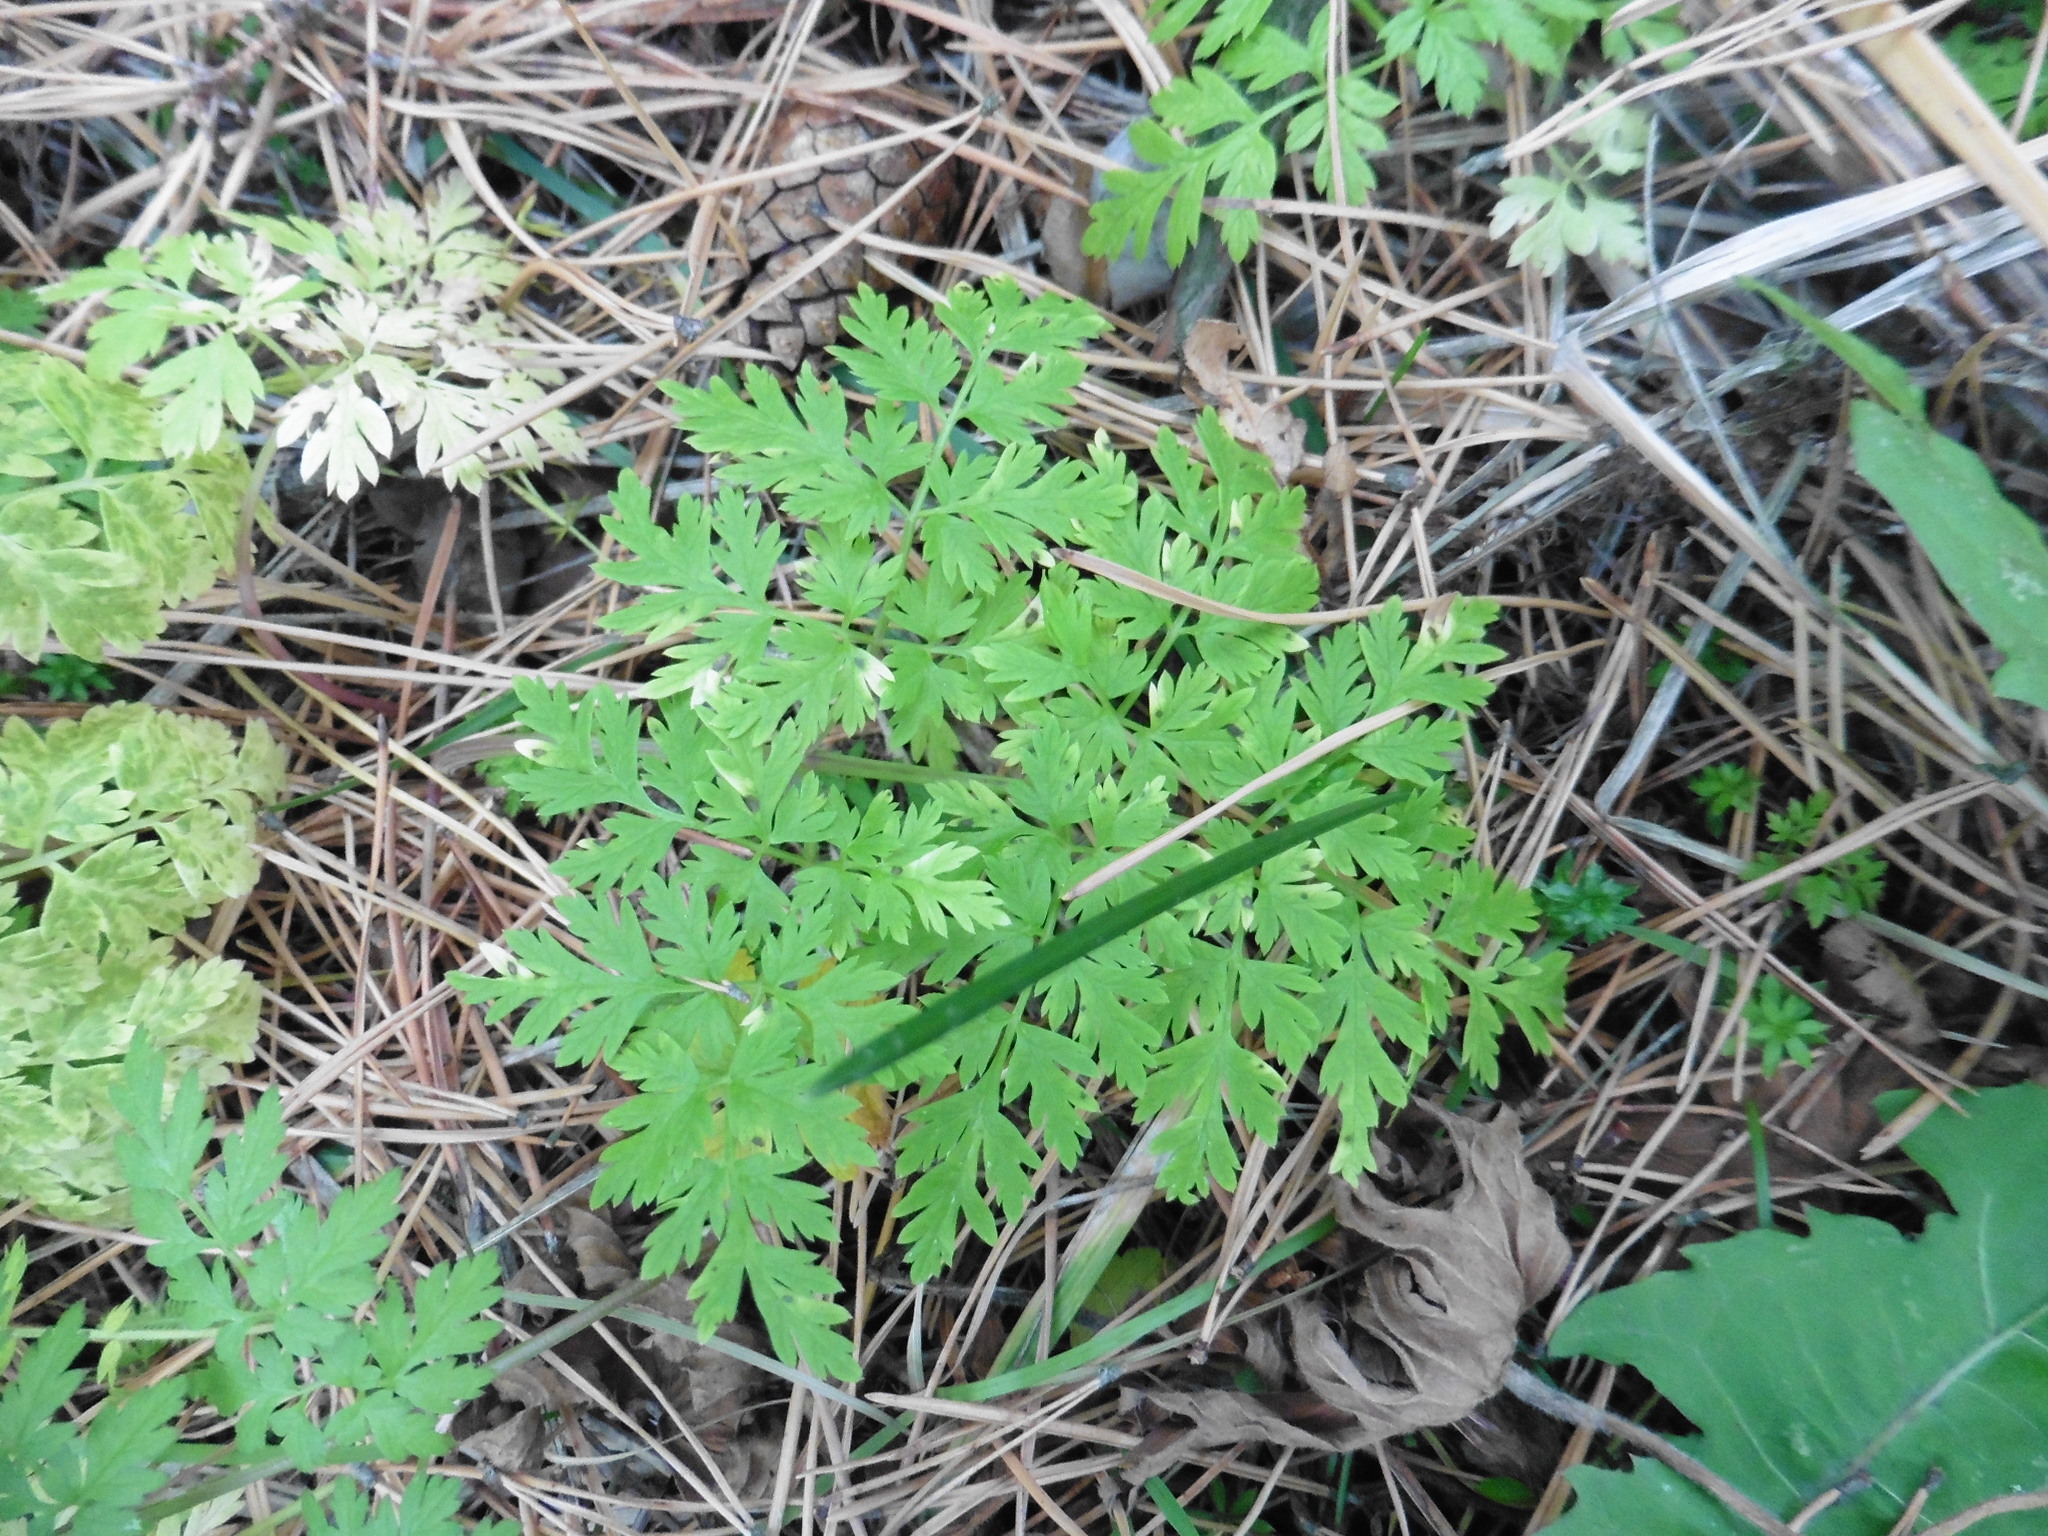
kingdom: Plantae
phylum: Tracheophyta
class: Magnoliopsida
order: Apiales
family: Apiaceae
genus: Anthriscus
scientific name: Anthriscus sylvestris
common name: Cow parsley
